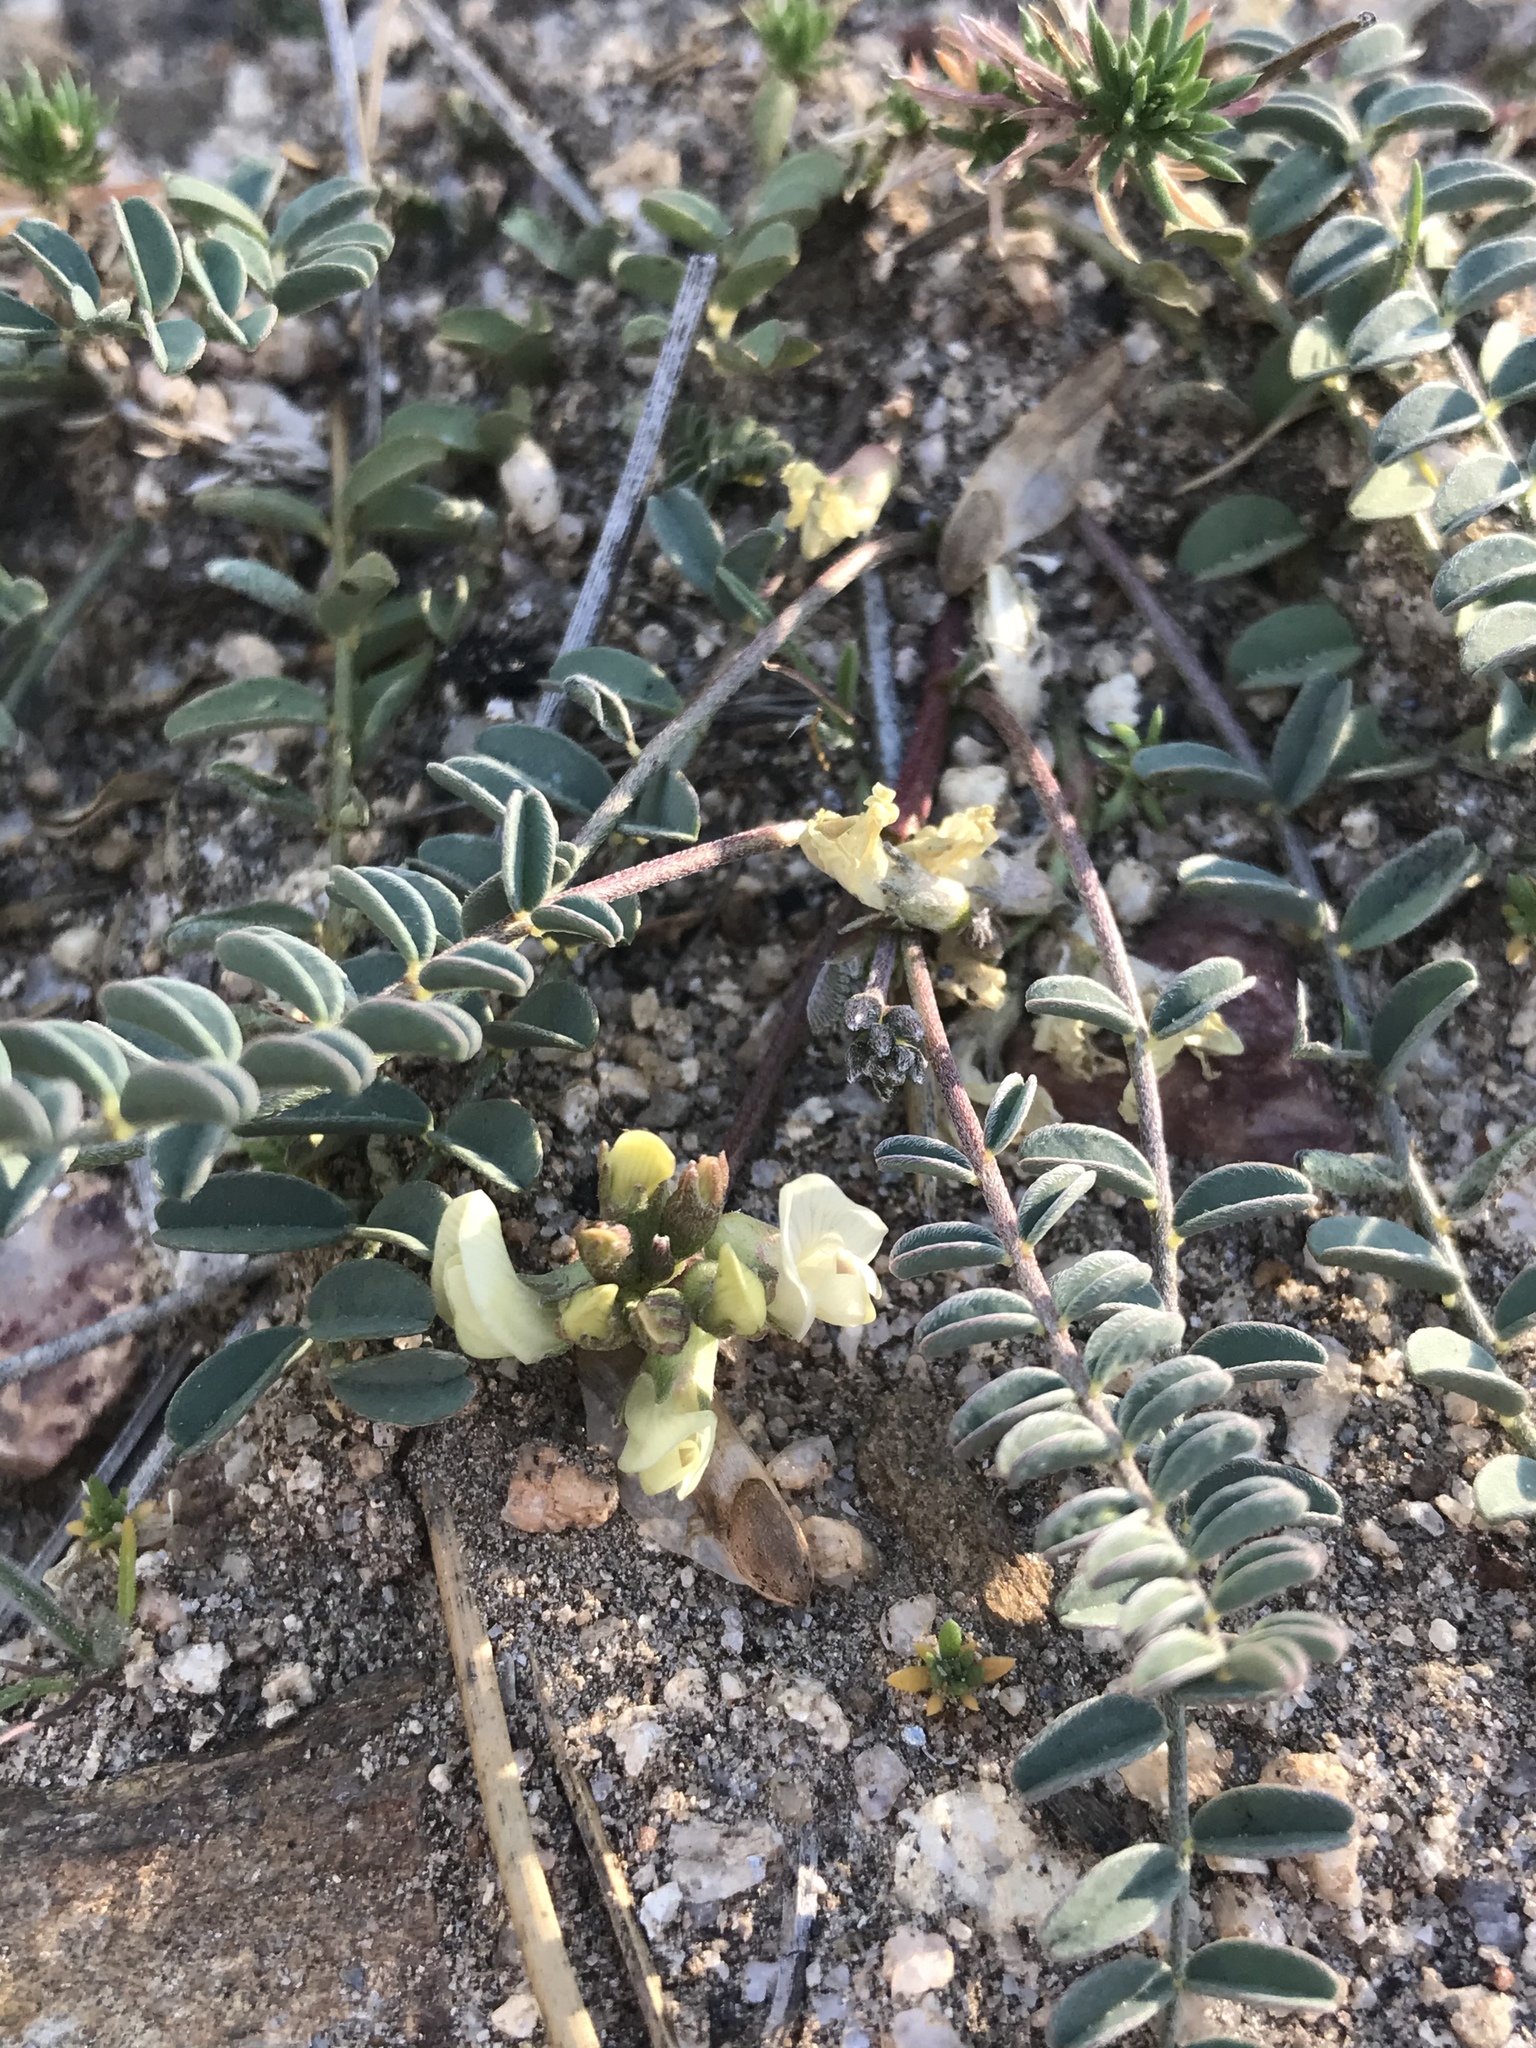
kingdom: Plantae
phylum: Tracheophyta
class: Magnoliopsida
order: Fabales
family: Fabaceae
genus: Astragalus
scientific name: Astragalus circumdatus
